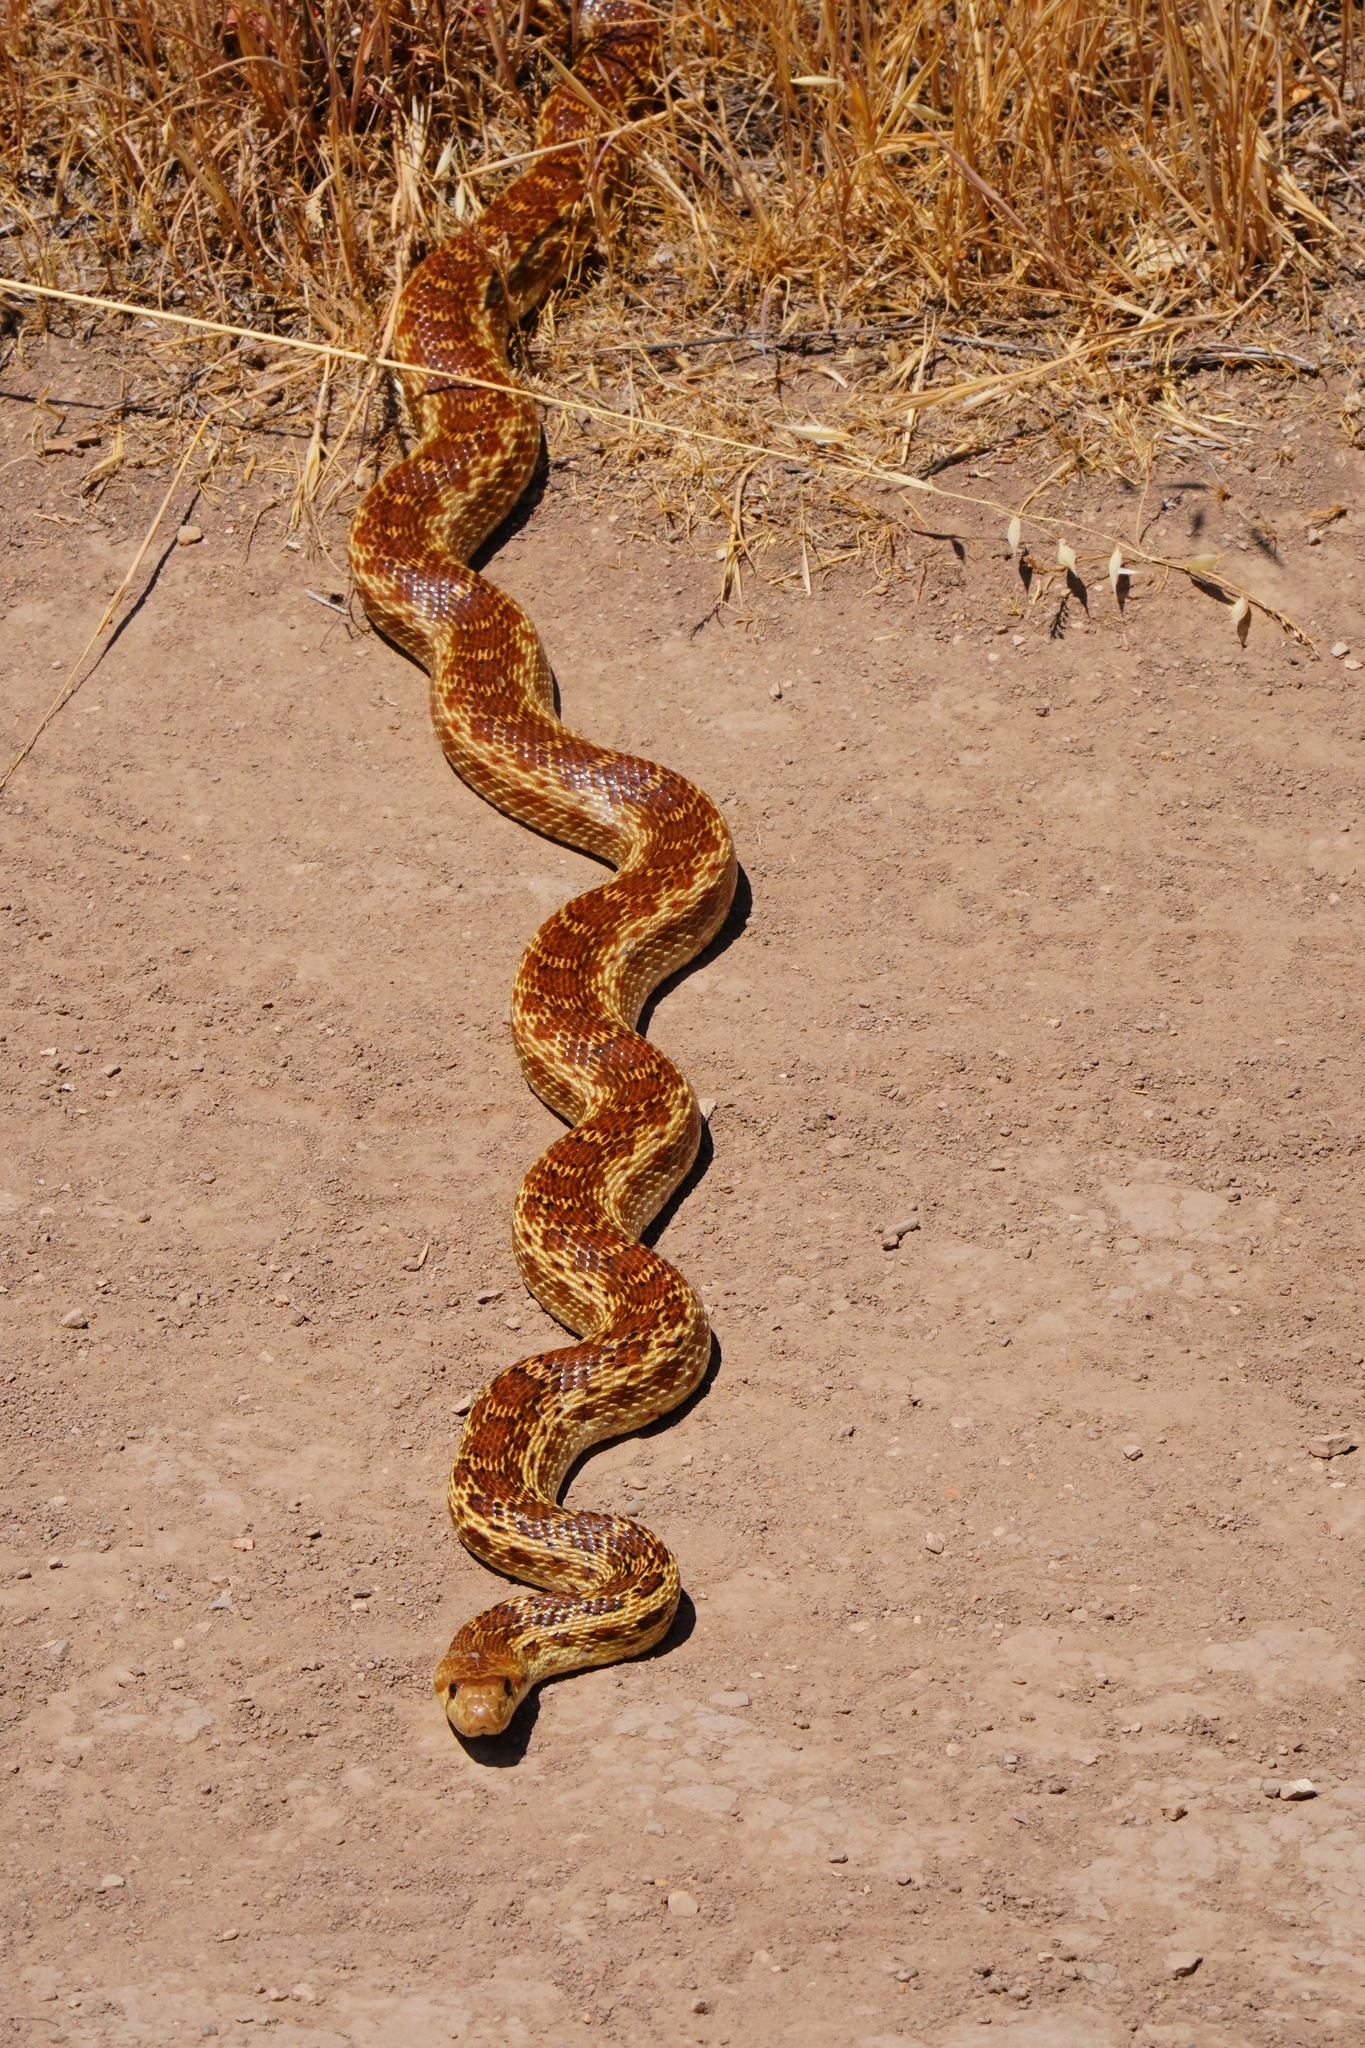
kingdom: Animalia
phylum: Chordata
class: Squamata
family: Colubridae
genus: Pituophis
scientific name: Pituophis catenifer
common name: Gopher snake
